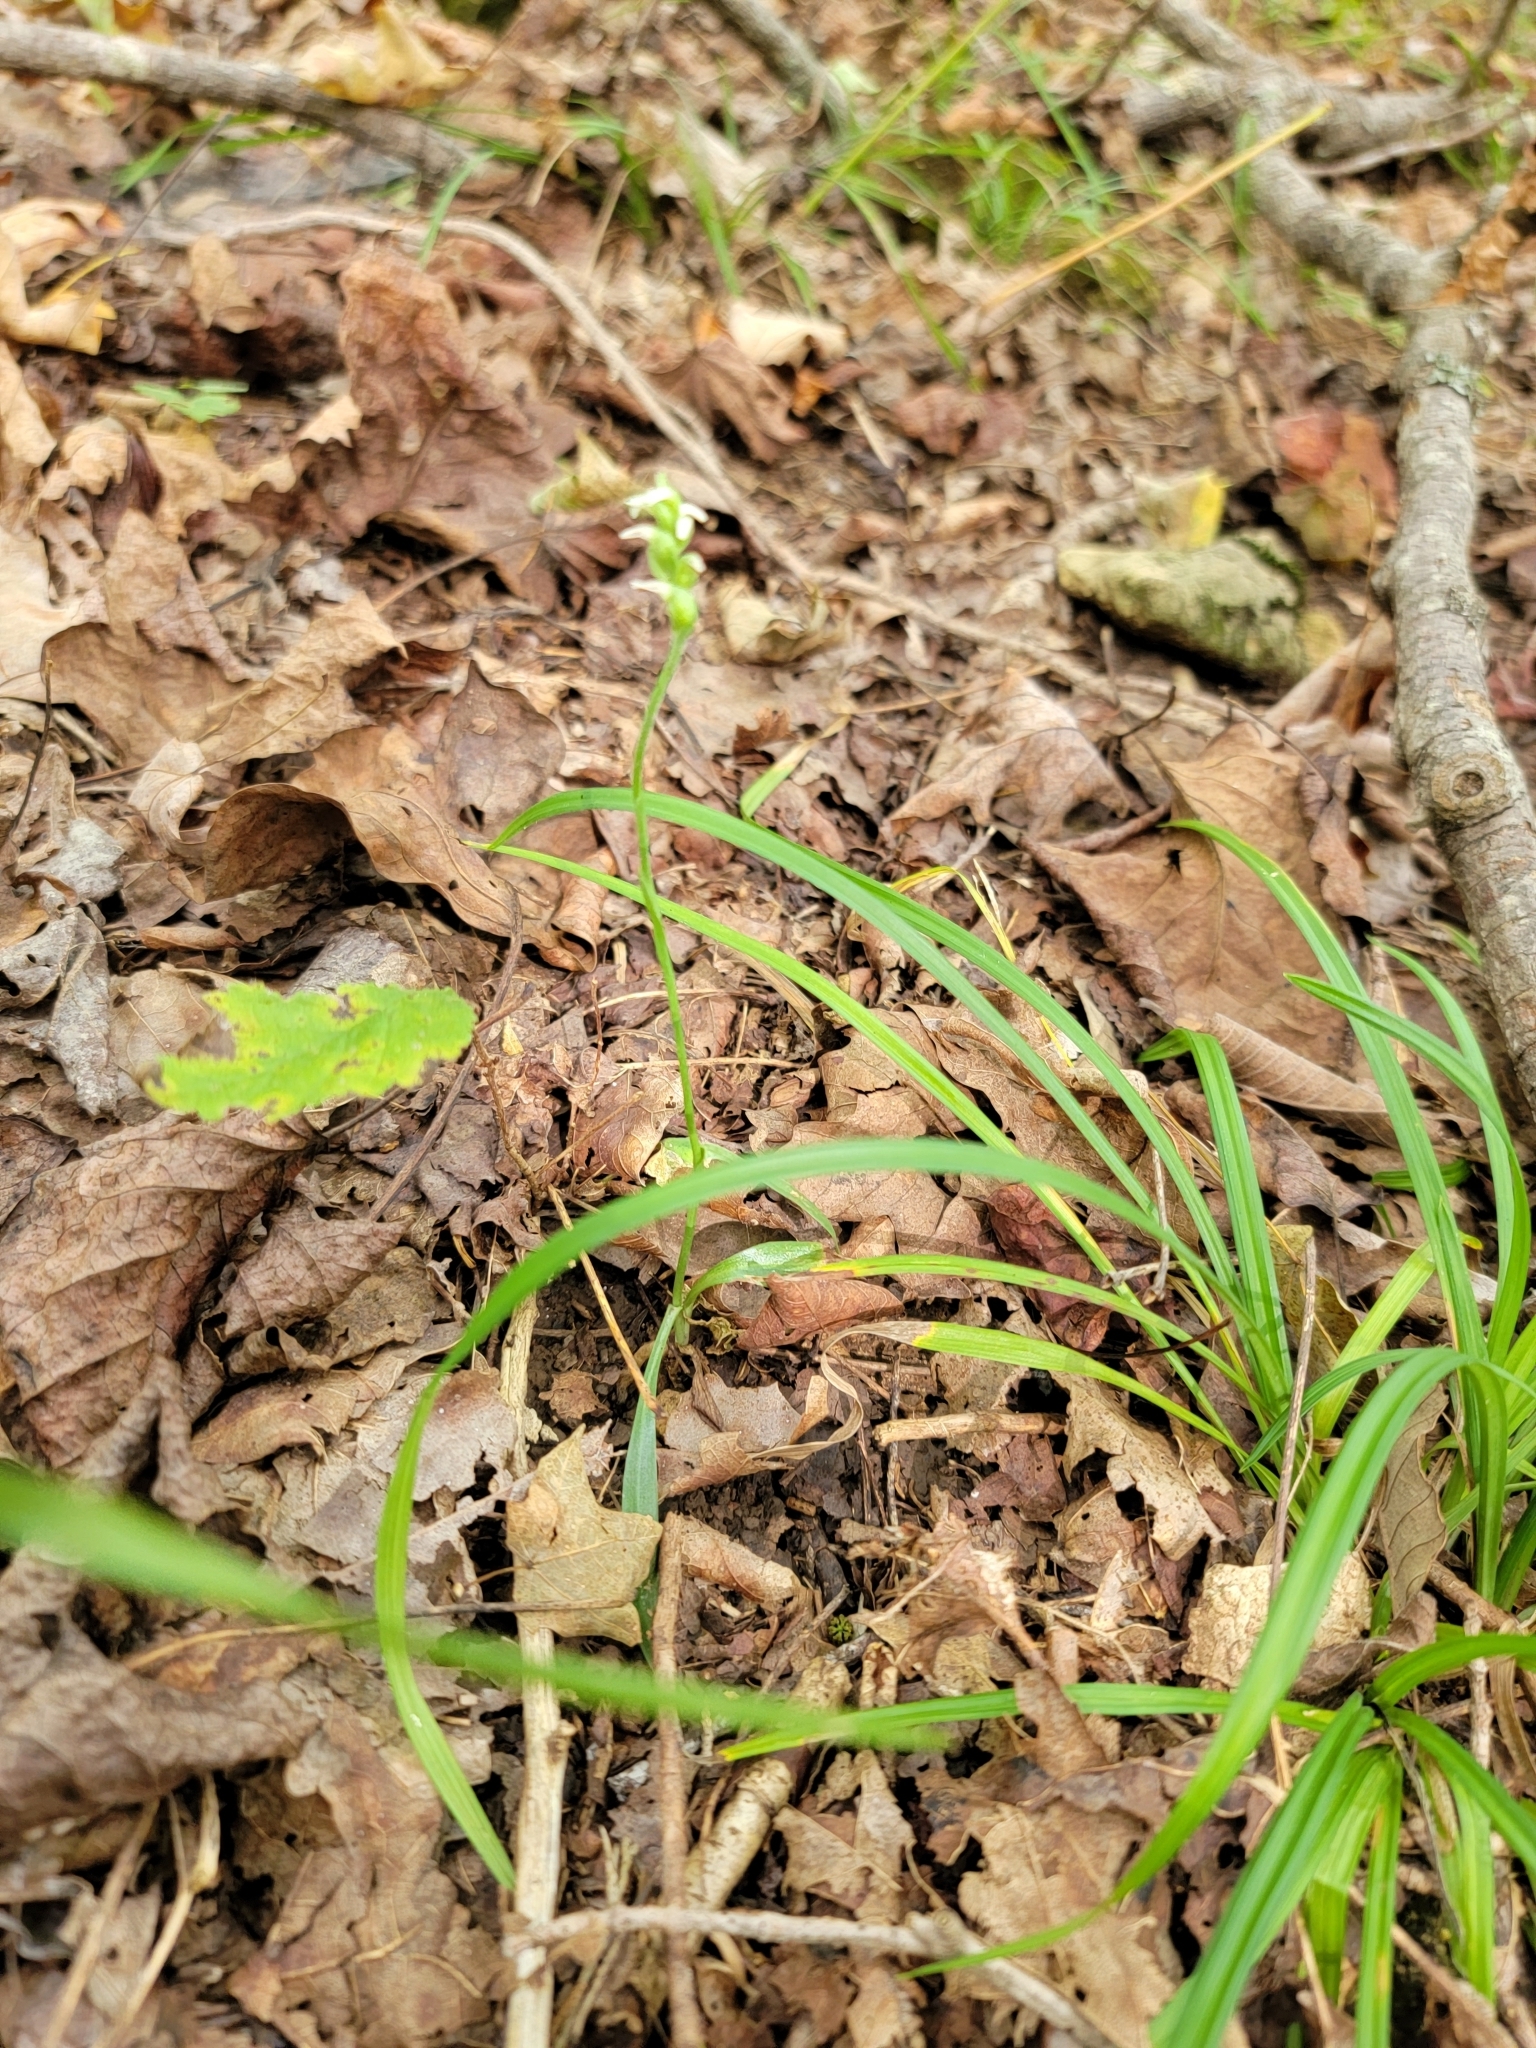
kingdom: Plantae
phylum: Tracheophyta
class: Liliopsida
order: Asparagales
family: Orchidaceae
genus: Spiranthes
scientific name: Spiranthes ovalis
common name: October ladies'-tresses
